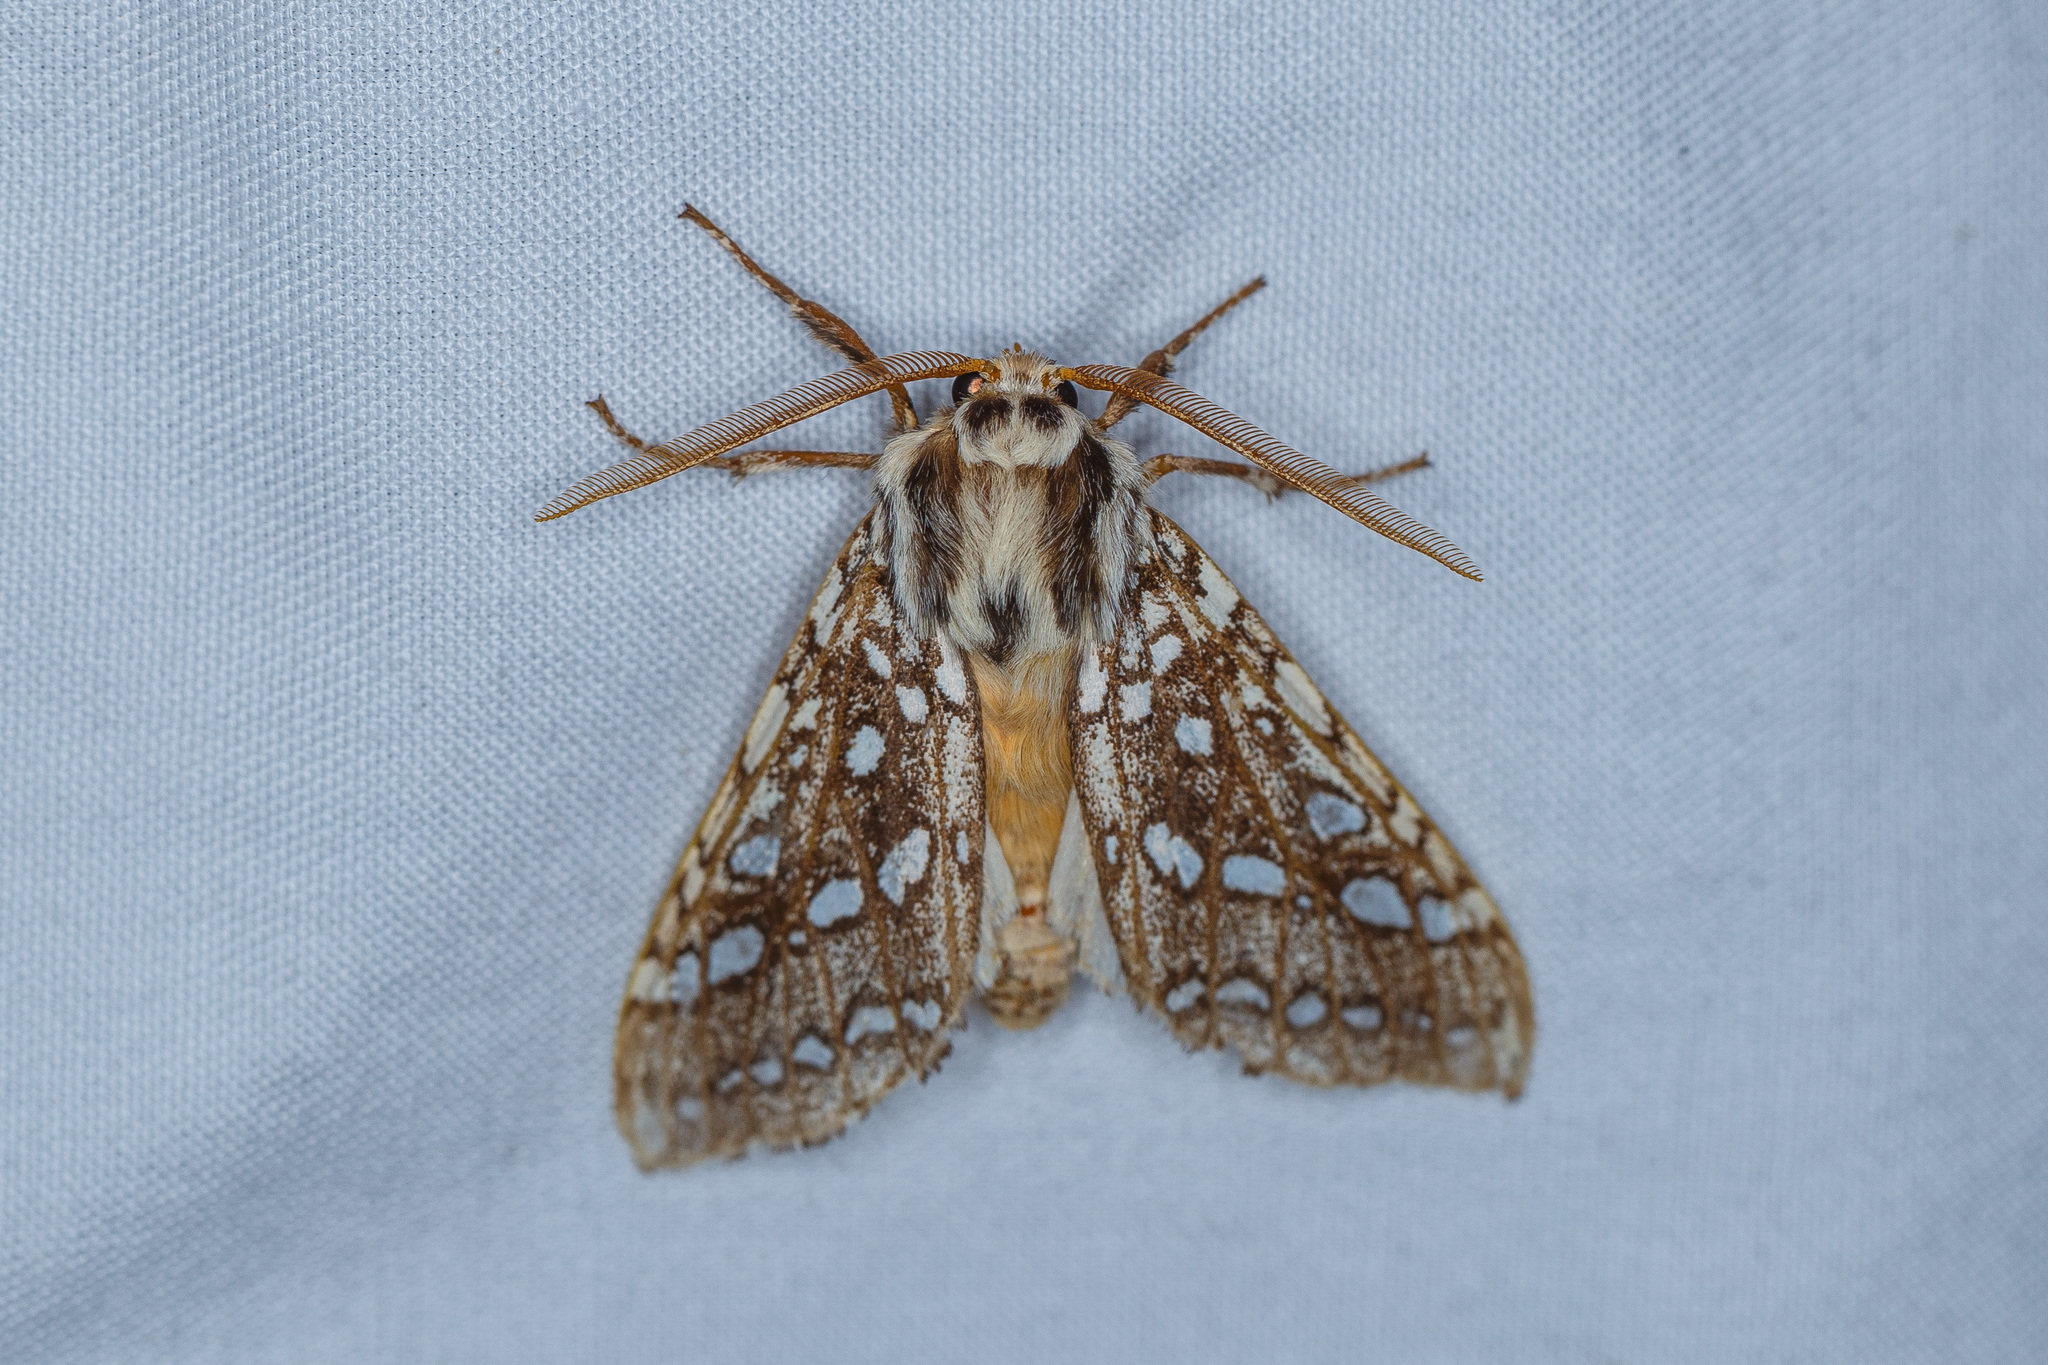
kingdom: Animalia
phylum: Arthropoda
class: Insecta
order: Lepidoptera
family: Erebidae
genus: Lophocampa
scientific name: Lophocampa argentata
